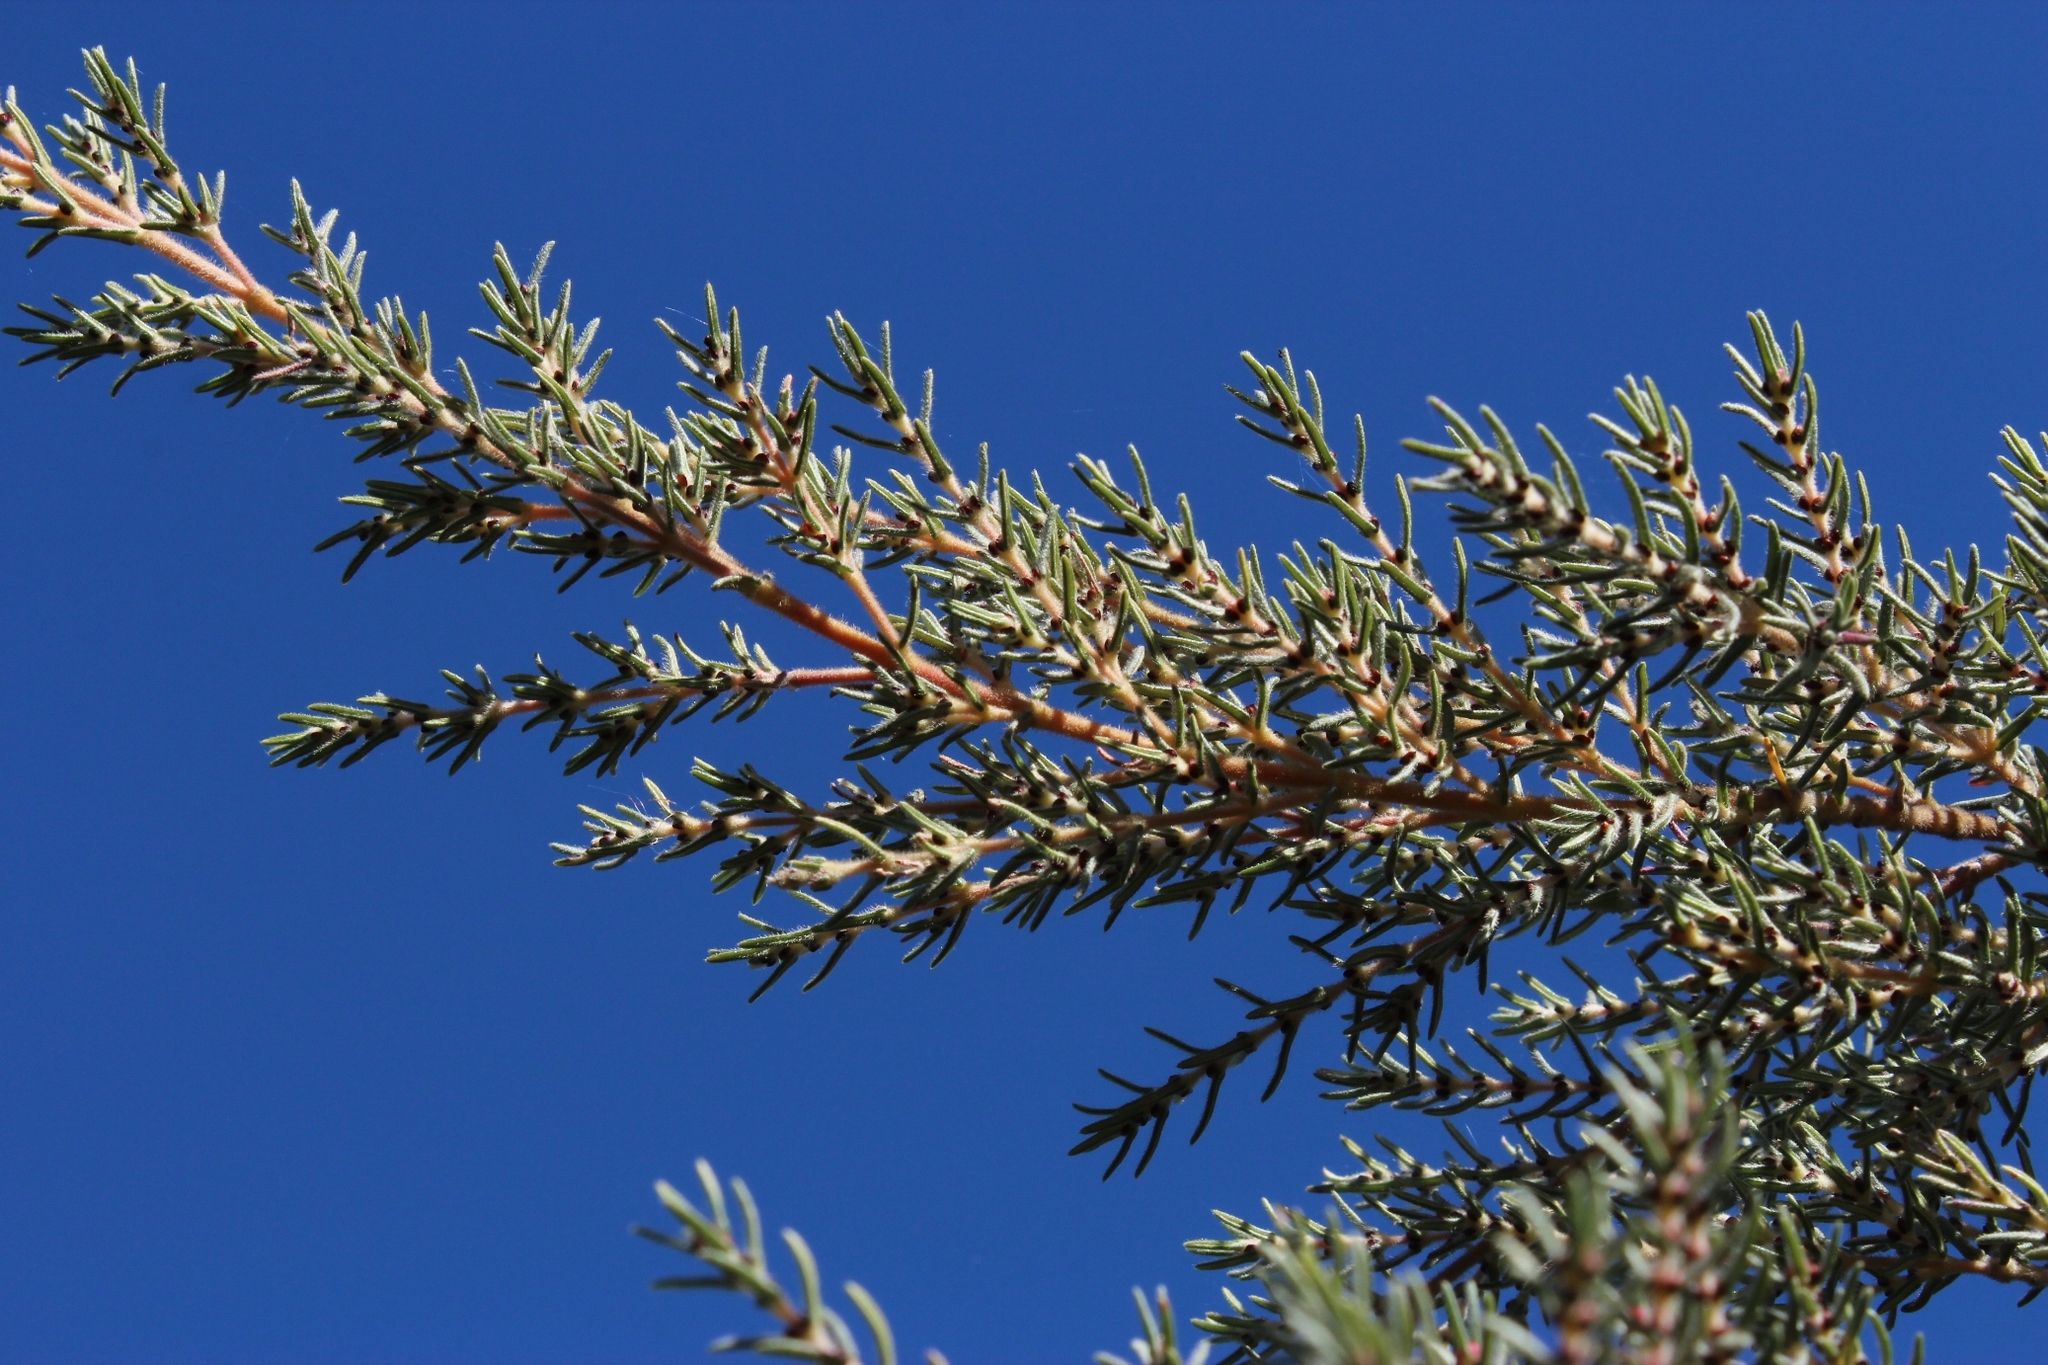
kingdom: Plantae
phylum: Tracheophyta
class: Magnoliopsida
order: Cornales
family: Grubbiaceae
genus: Grubbia
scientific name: Grubbia rosmarinifolia
